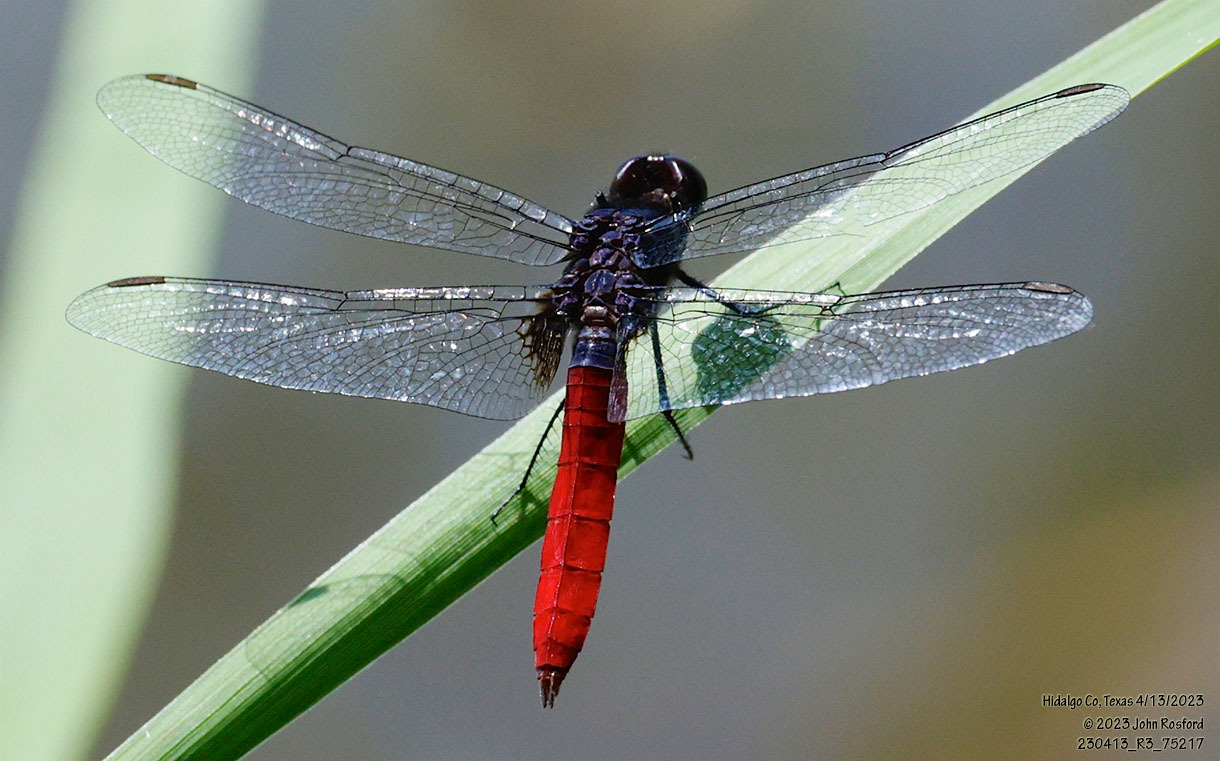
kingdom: Animalia
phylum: Arthropoda
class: Insecta
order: Odonata
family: Libellulidae
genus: Planiplax
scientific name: Planiplax sanguiniventris
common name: Mexican scarlet-tail
